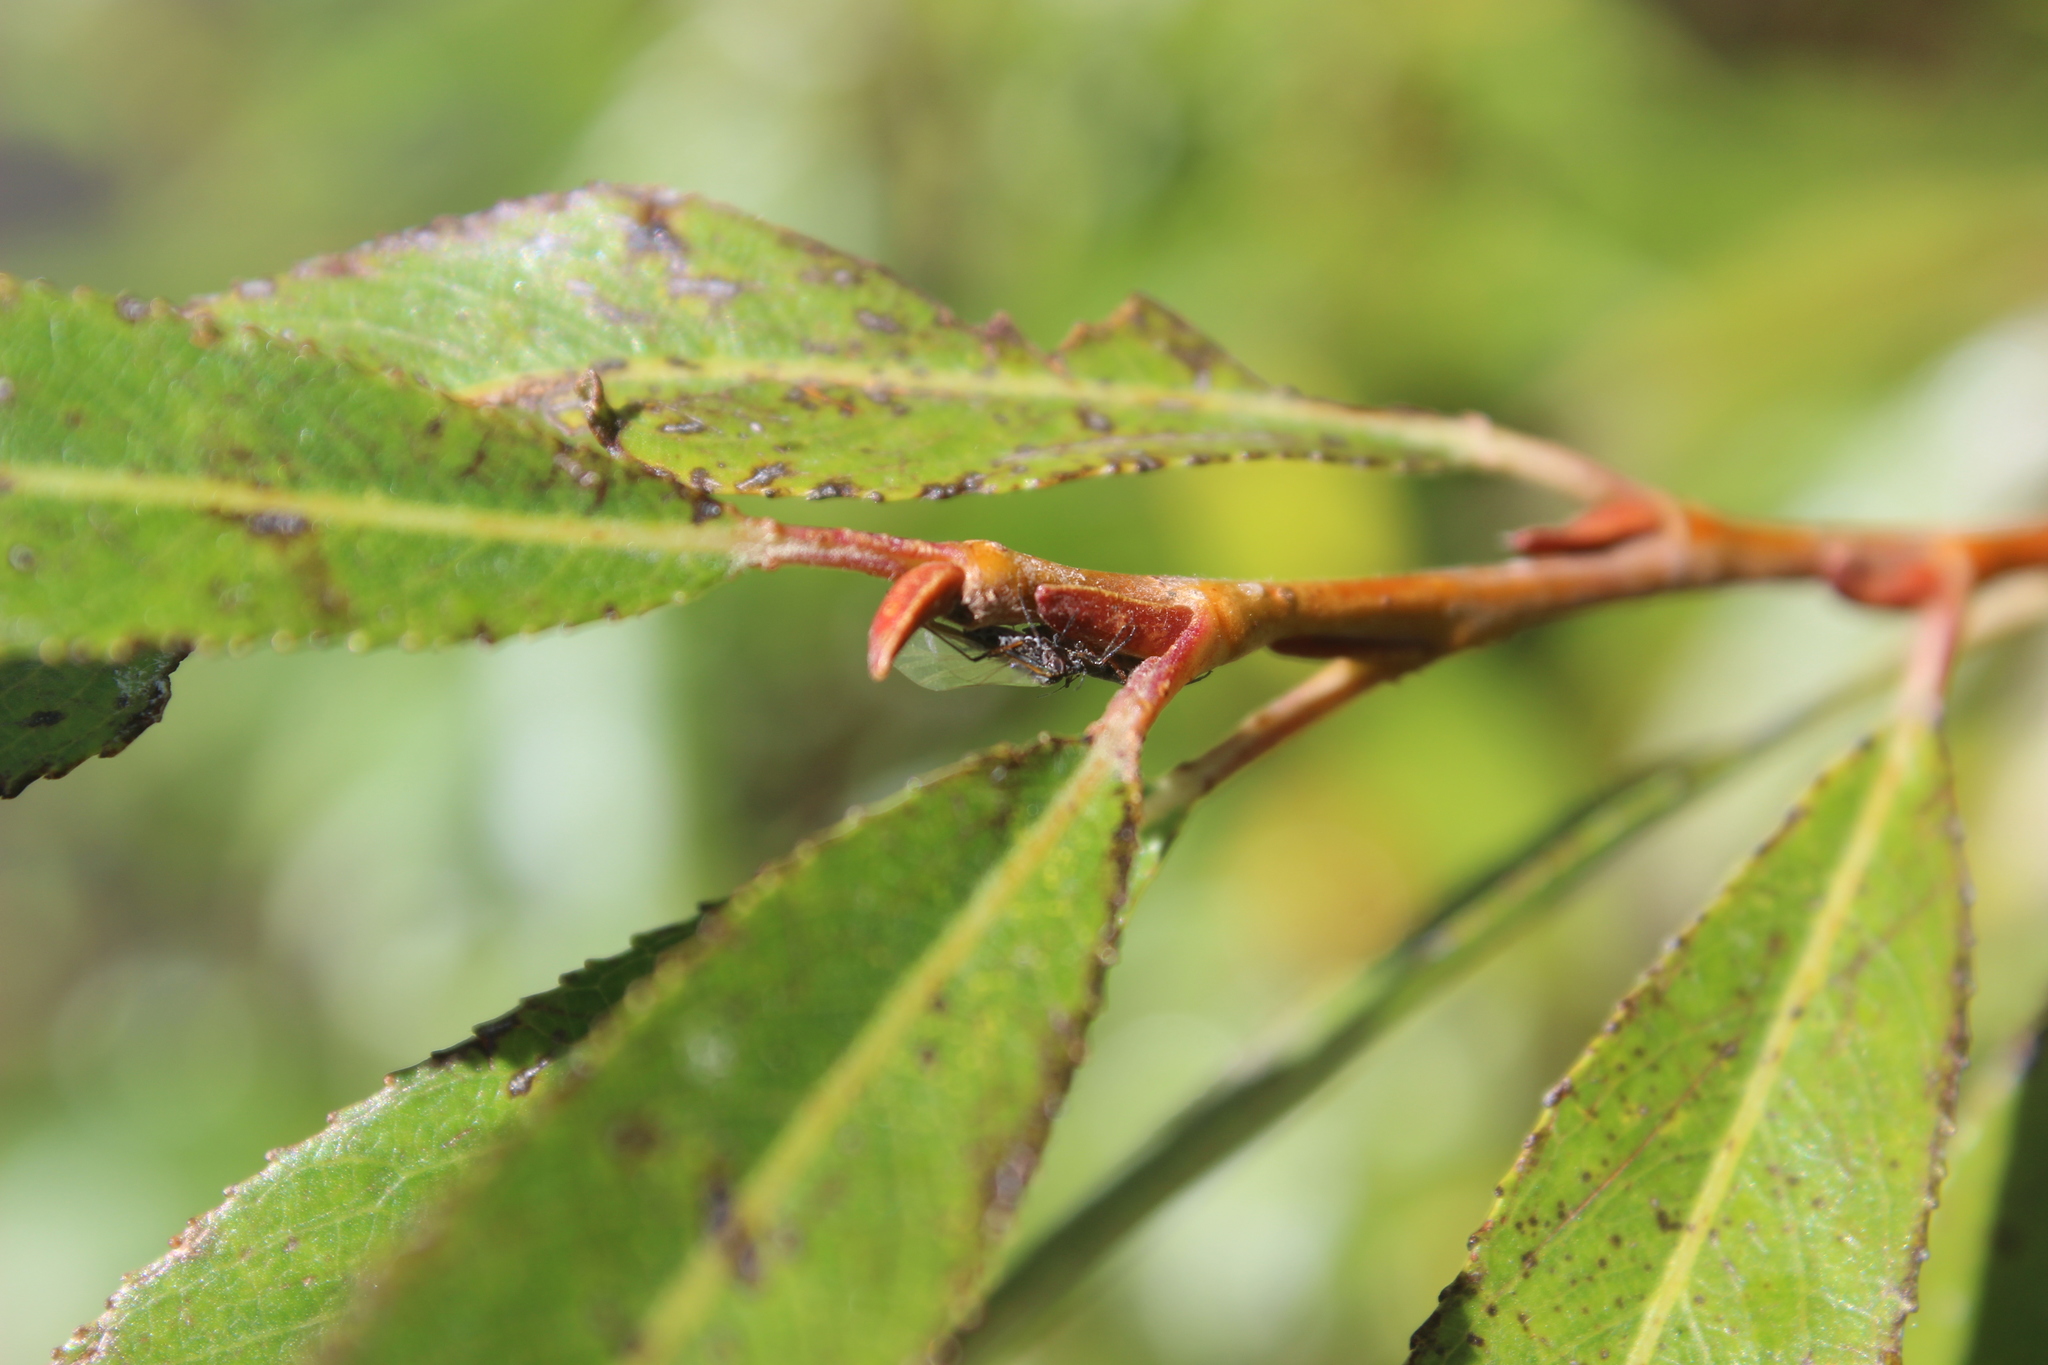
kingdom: Animalia
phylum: Arthropoda
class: Insecta
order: Hemiptera
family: Aphididae
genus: Tuberolachnus
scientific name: Tuberolachnus salignus
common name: Giant willow aphid
